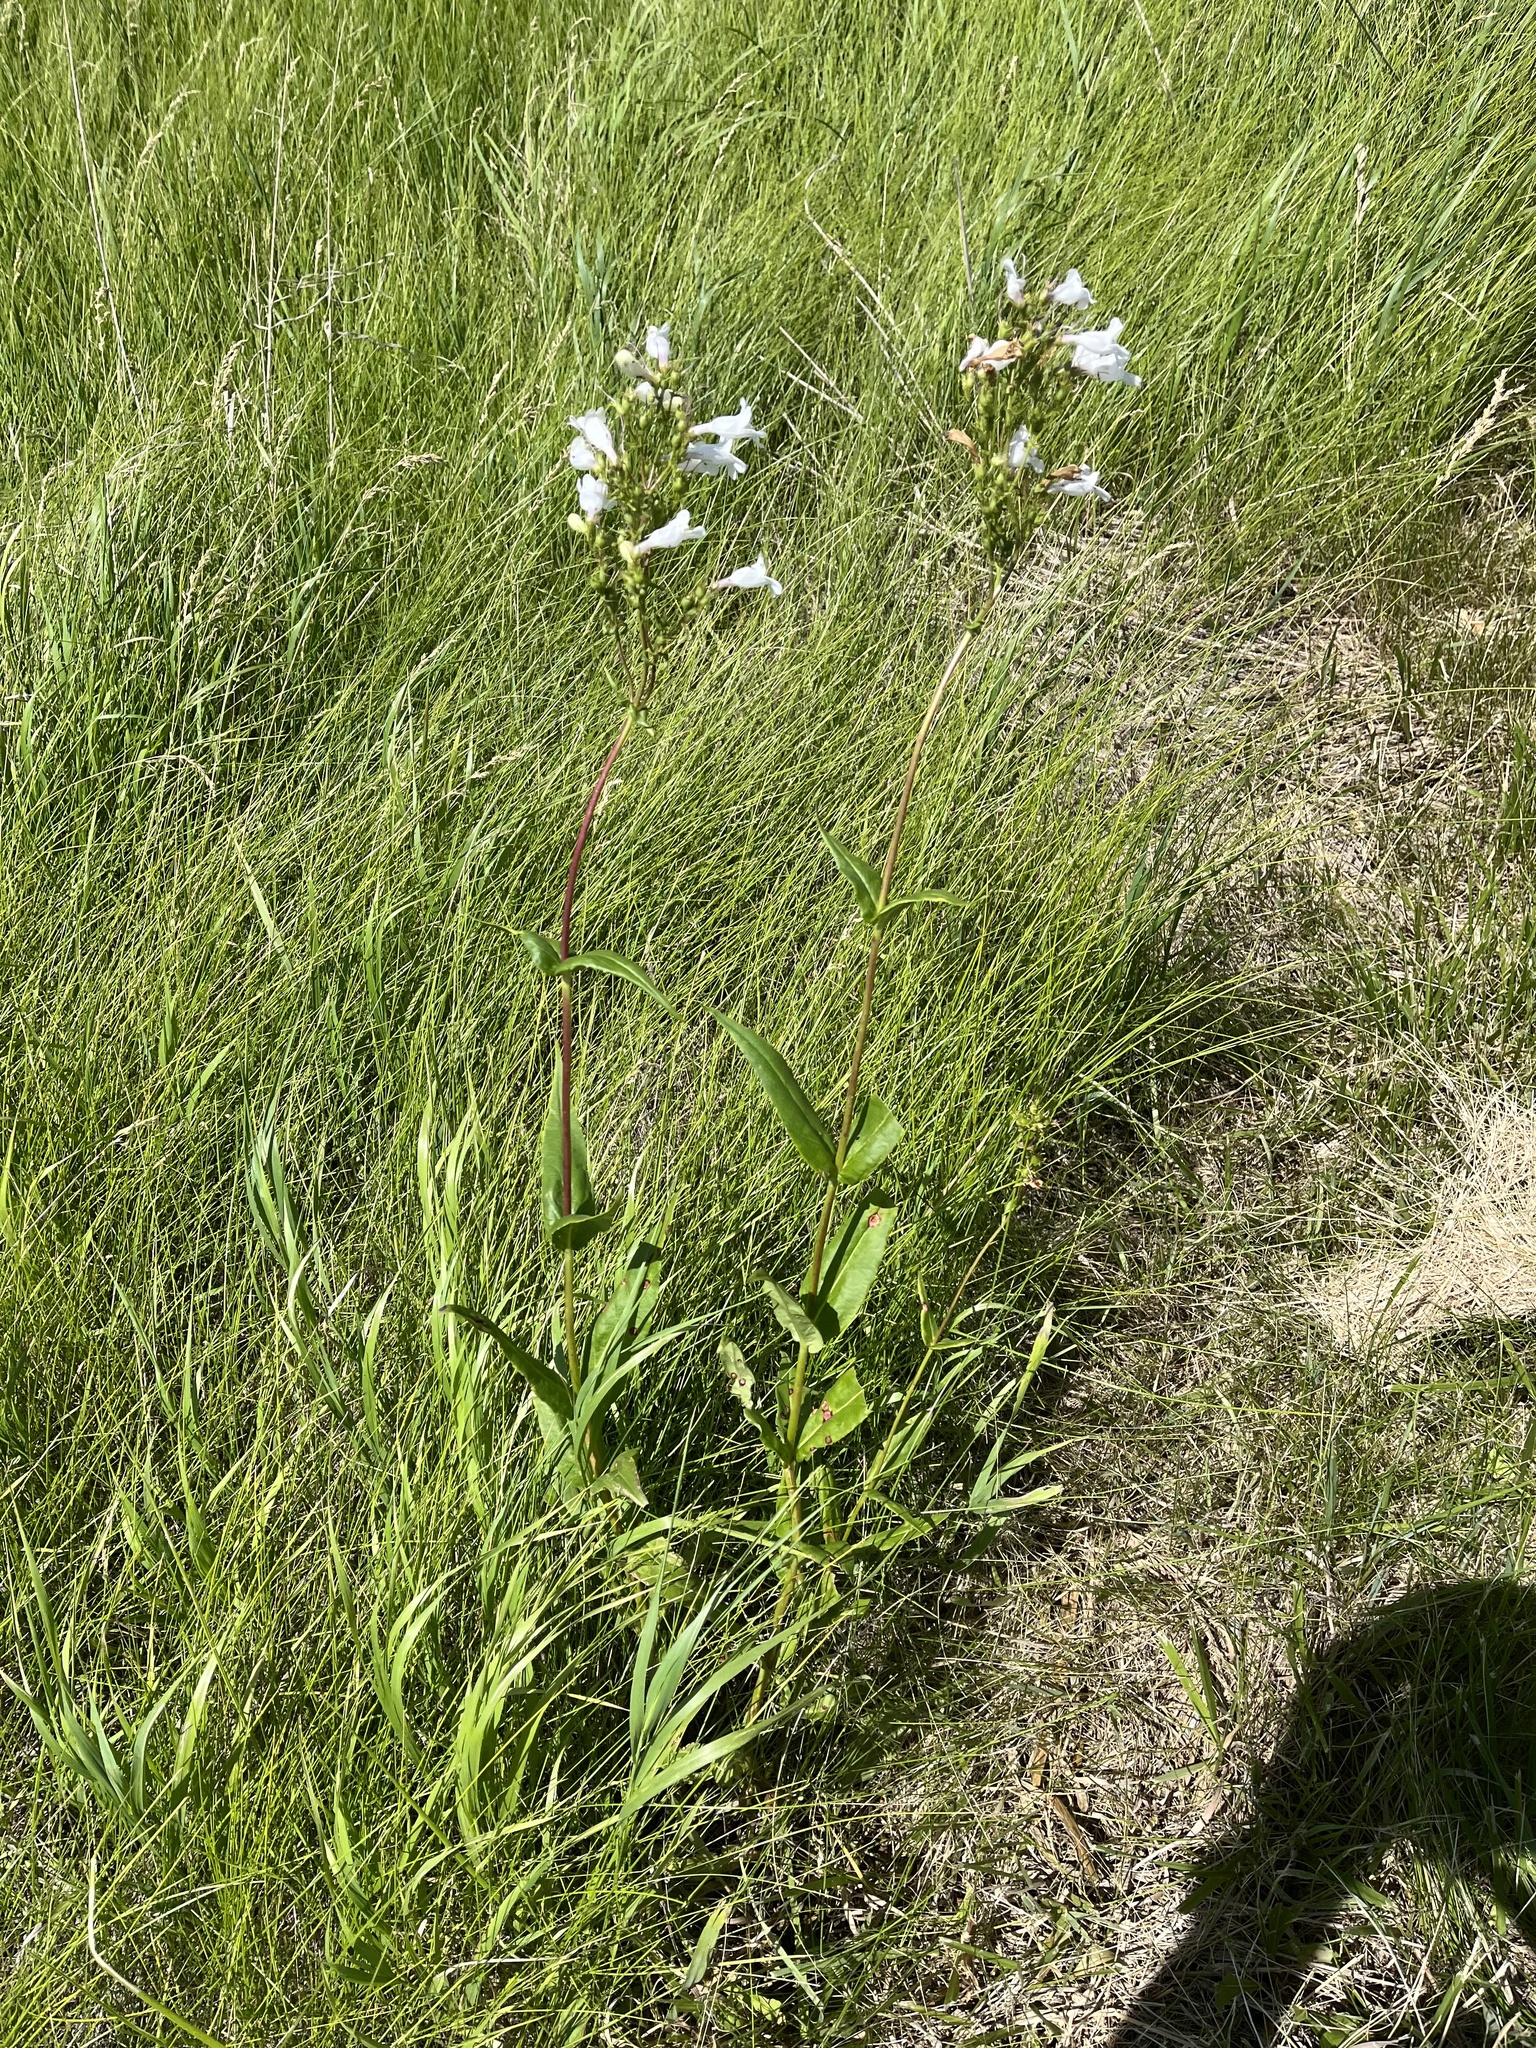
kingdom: Plantae
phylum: Tracheophyta
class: Magnoliopsida
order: Lamiales
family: Plantaginaceae
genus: Penstemon
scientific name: Penstemon digitalis
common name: Foxglove beardtongue
